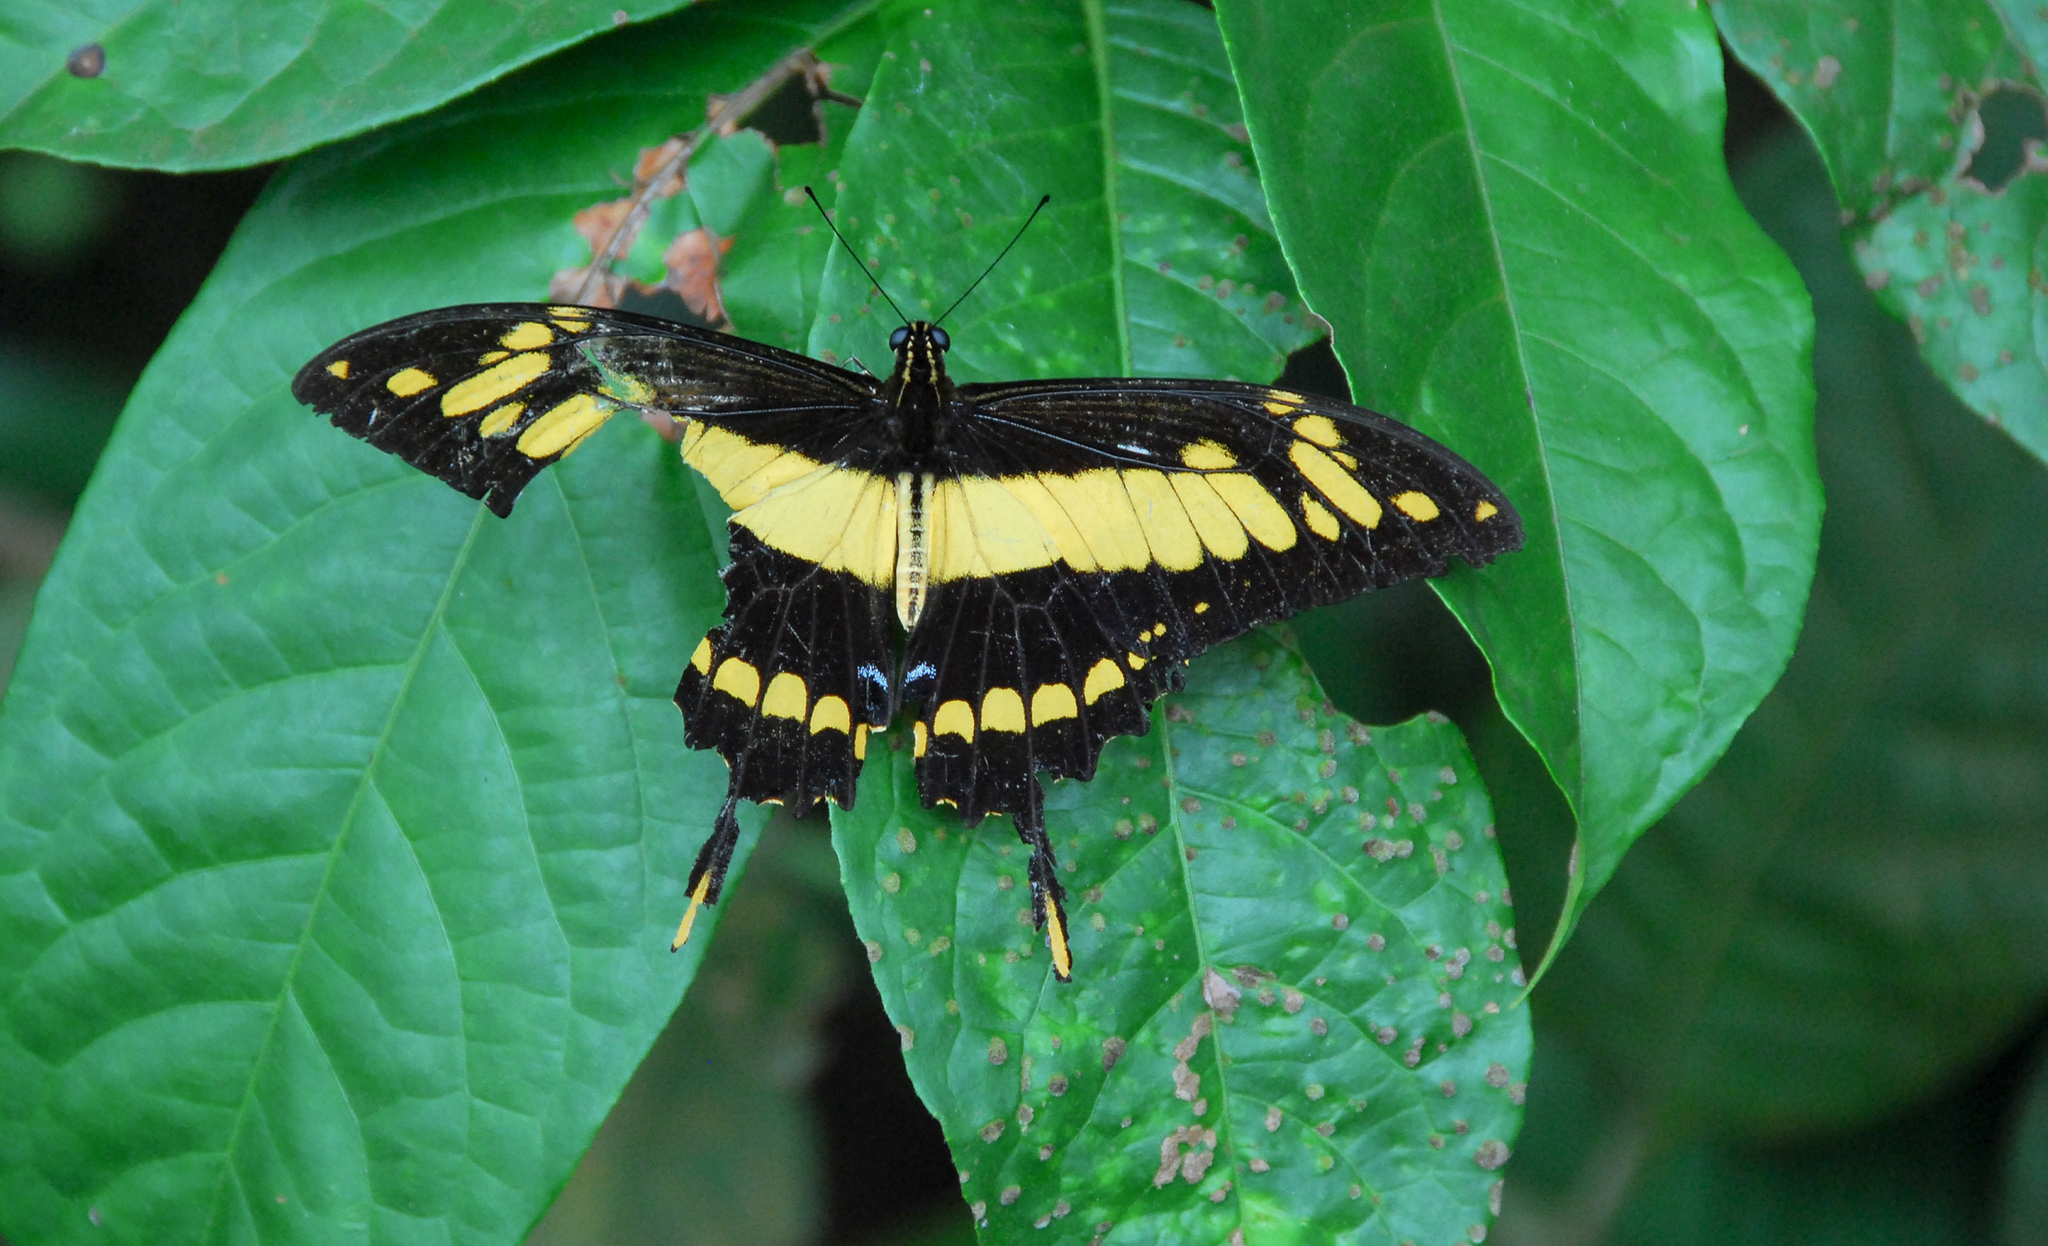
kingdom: Animalia
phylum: Arthropoda
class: Insecta
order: Lepidoptera
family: Papilionidae
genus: Papilio
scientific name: Papilio thoas
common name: King swallowtail
